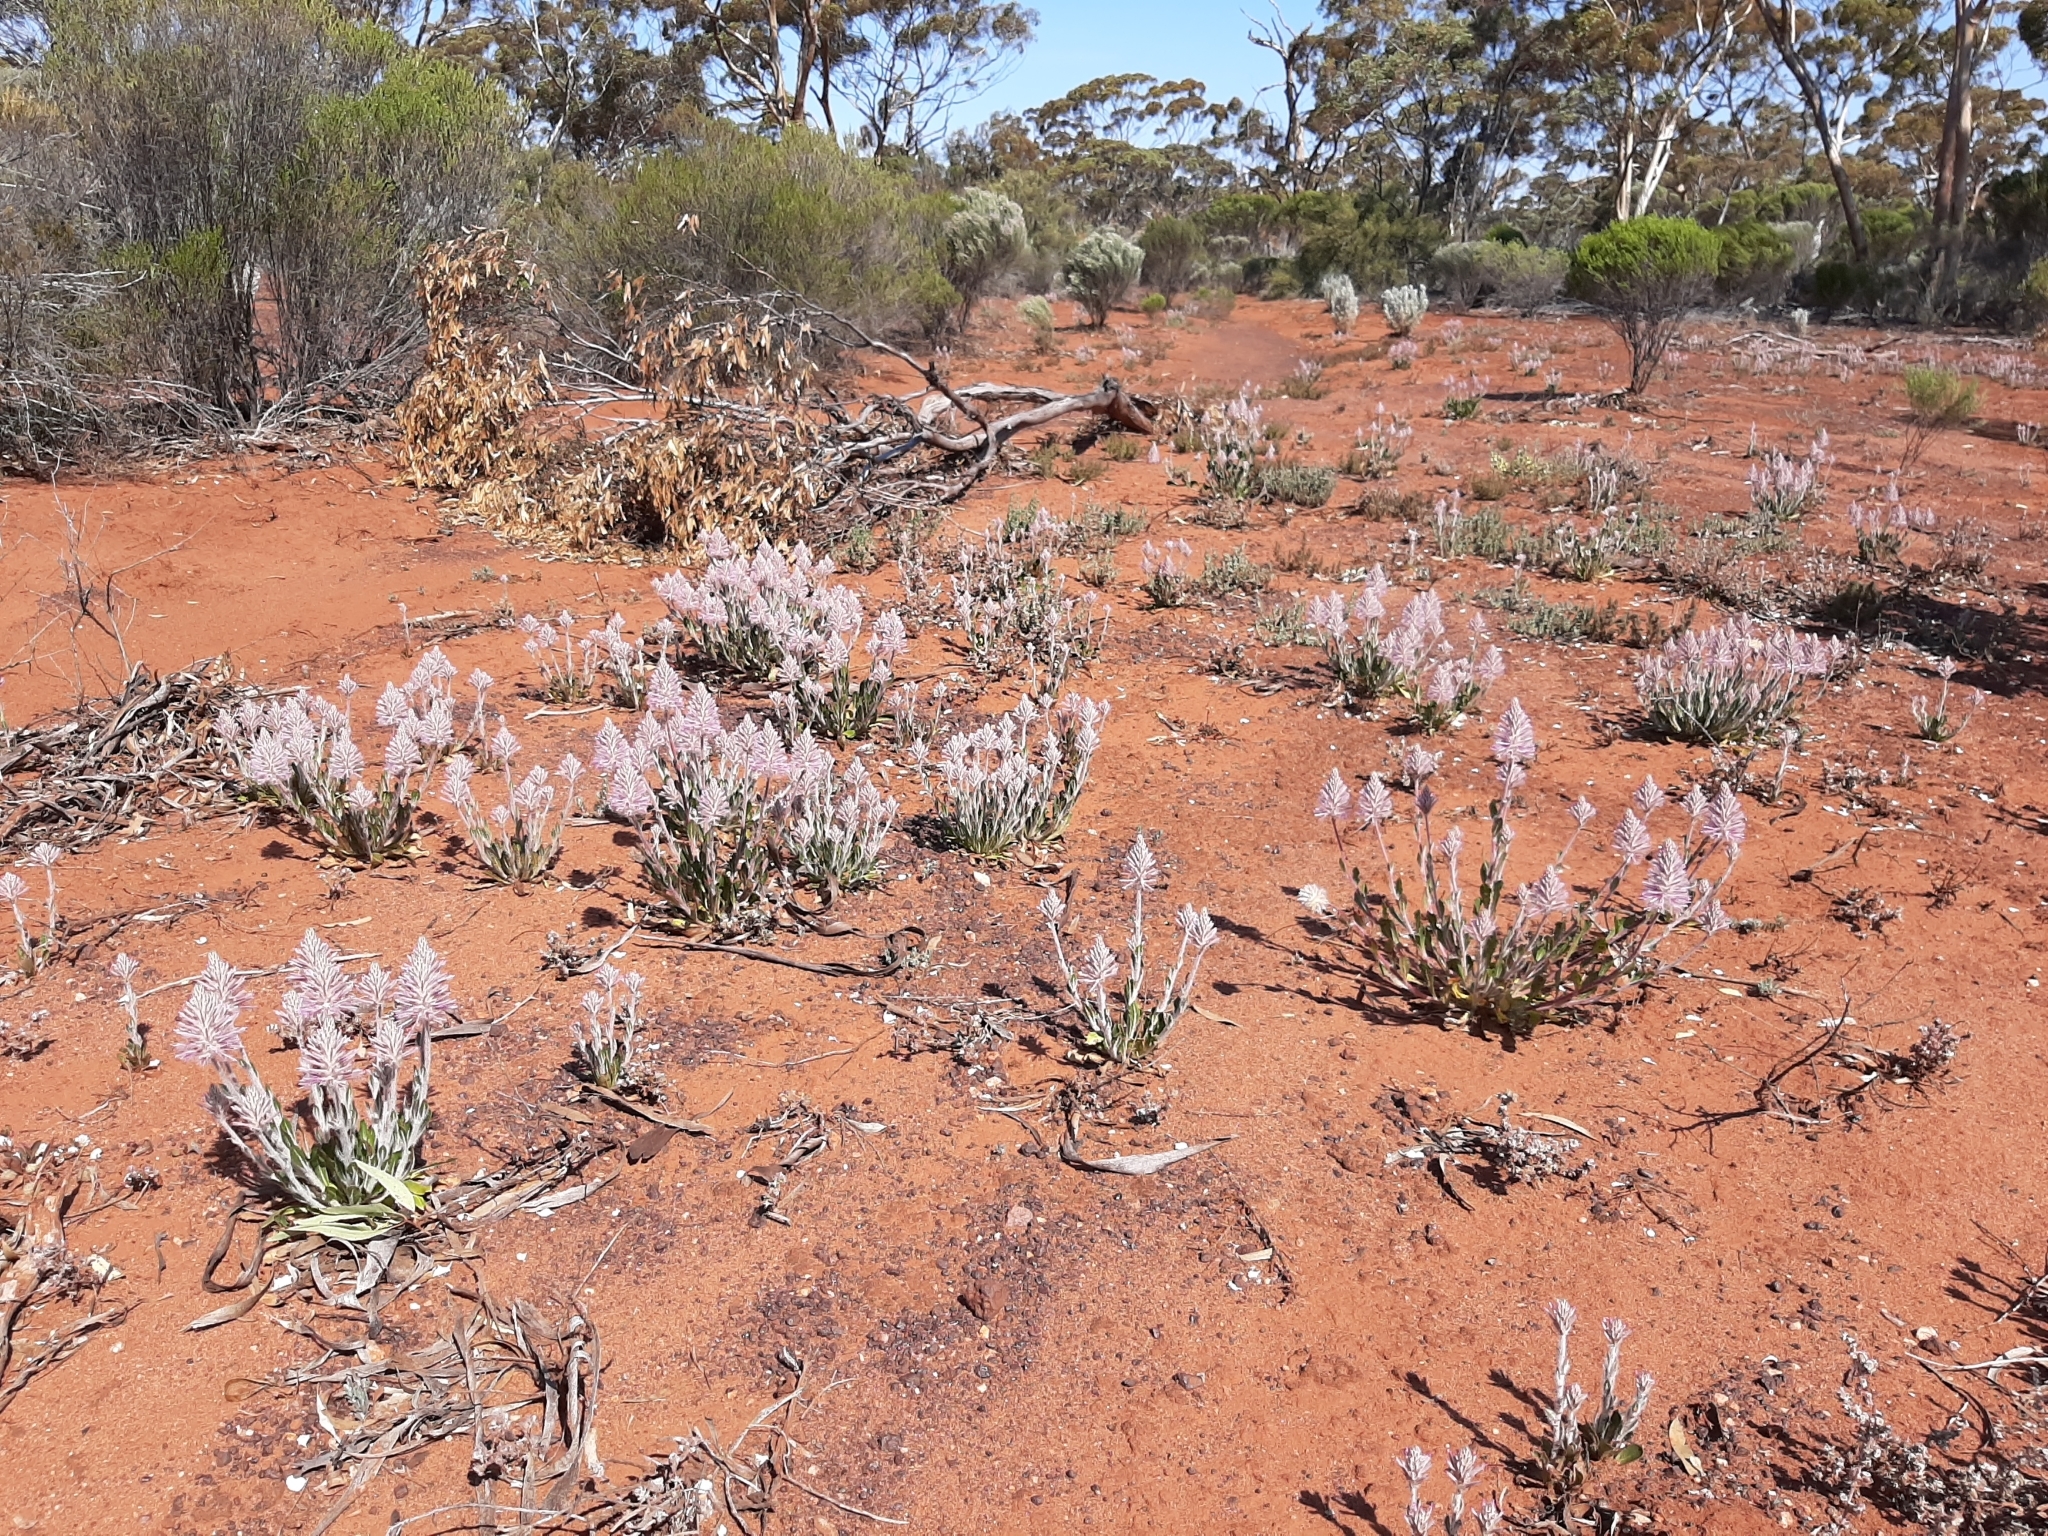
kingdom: Plantae
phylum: Tracheophyta
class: Magnoliopsida
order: Caryophyllales
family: Amaranthaceae
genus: Ptilotus
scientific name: Ptilotus exaltatus
